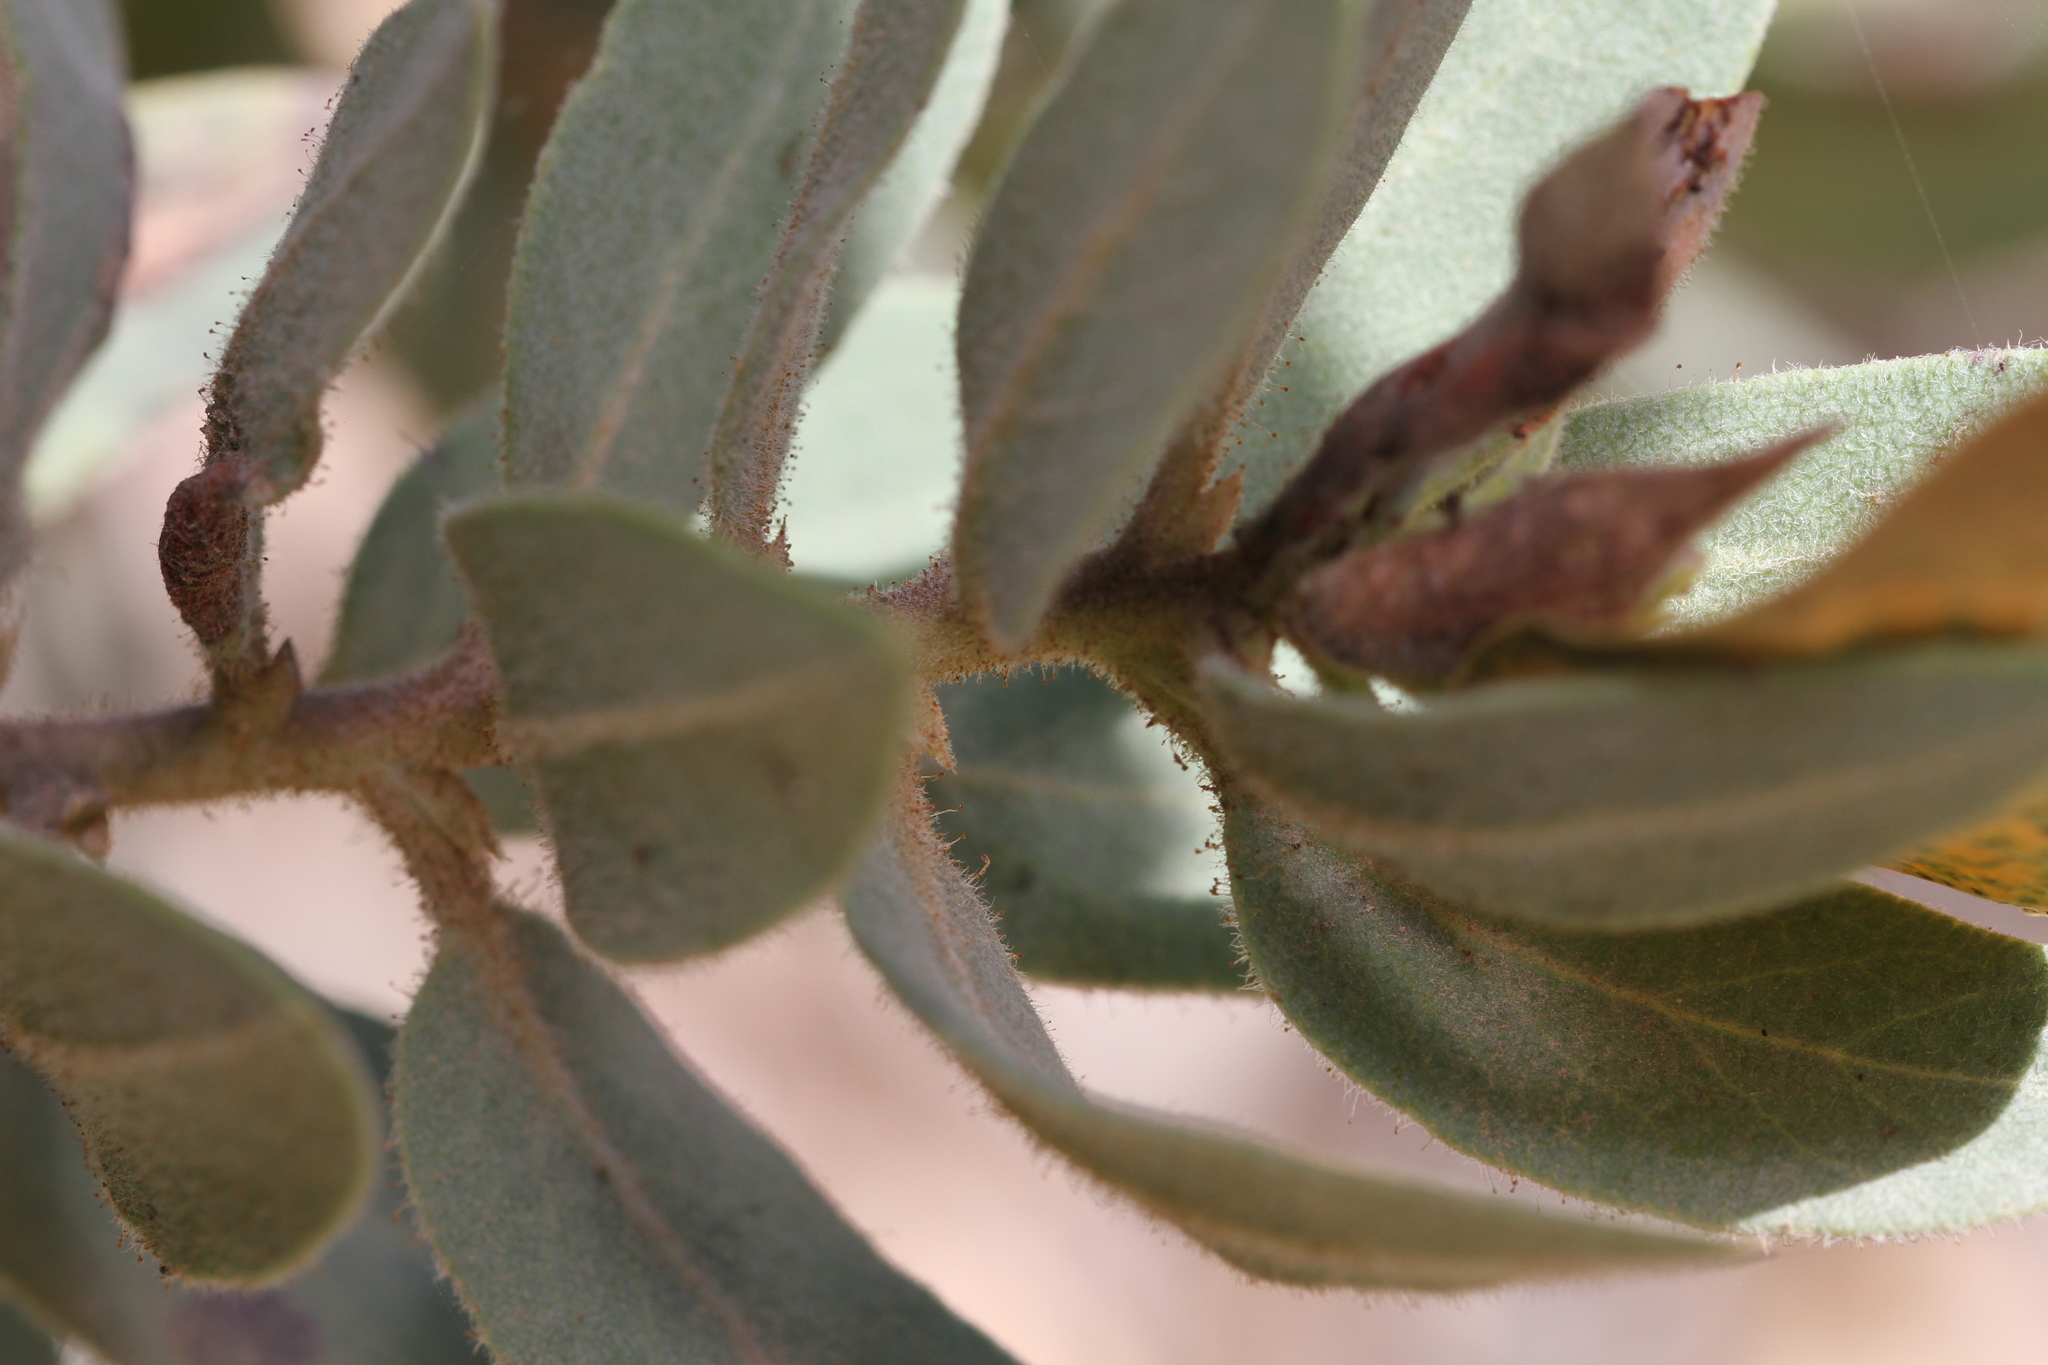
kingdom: Plantae
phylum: Tracheophyta
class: Magnoliopsida
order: Ericales
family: Ericaceae
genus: Arctostaphylos
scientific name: Arctostaphylos glandulosa
